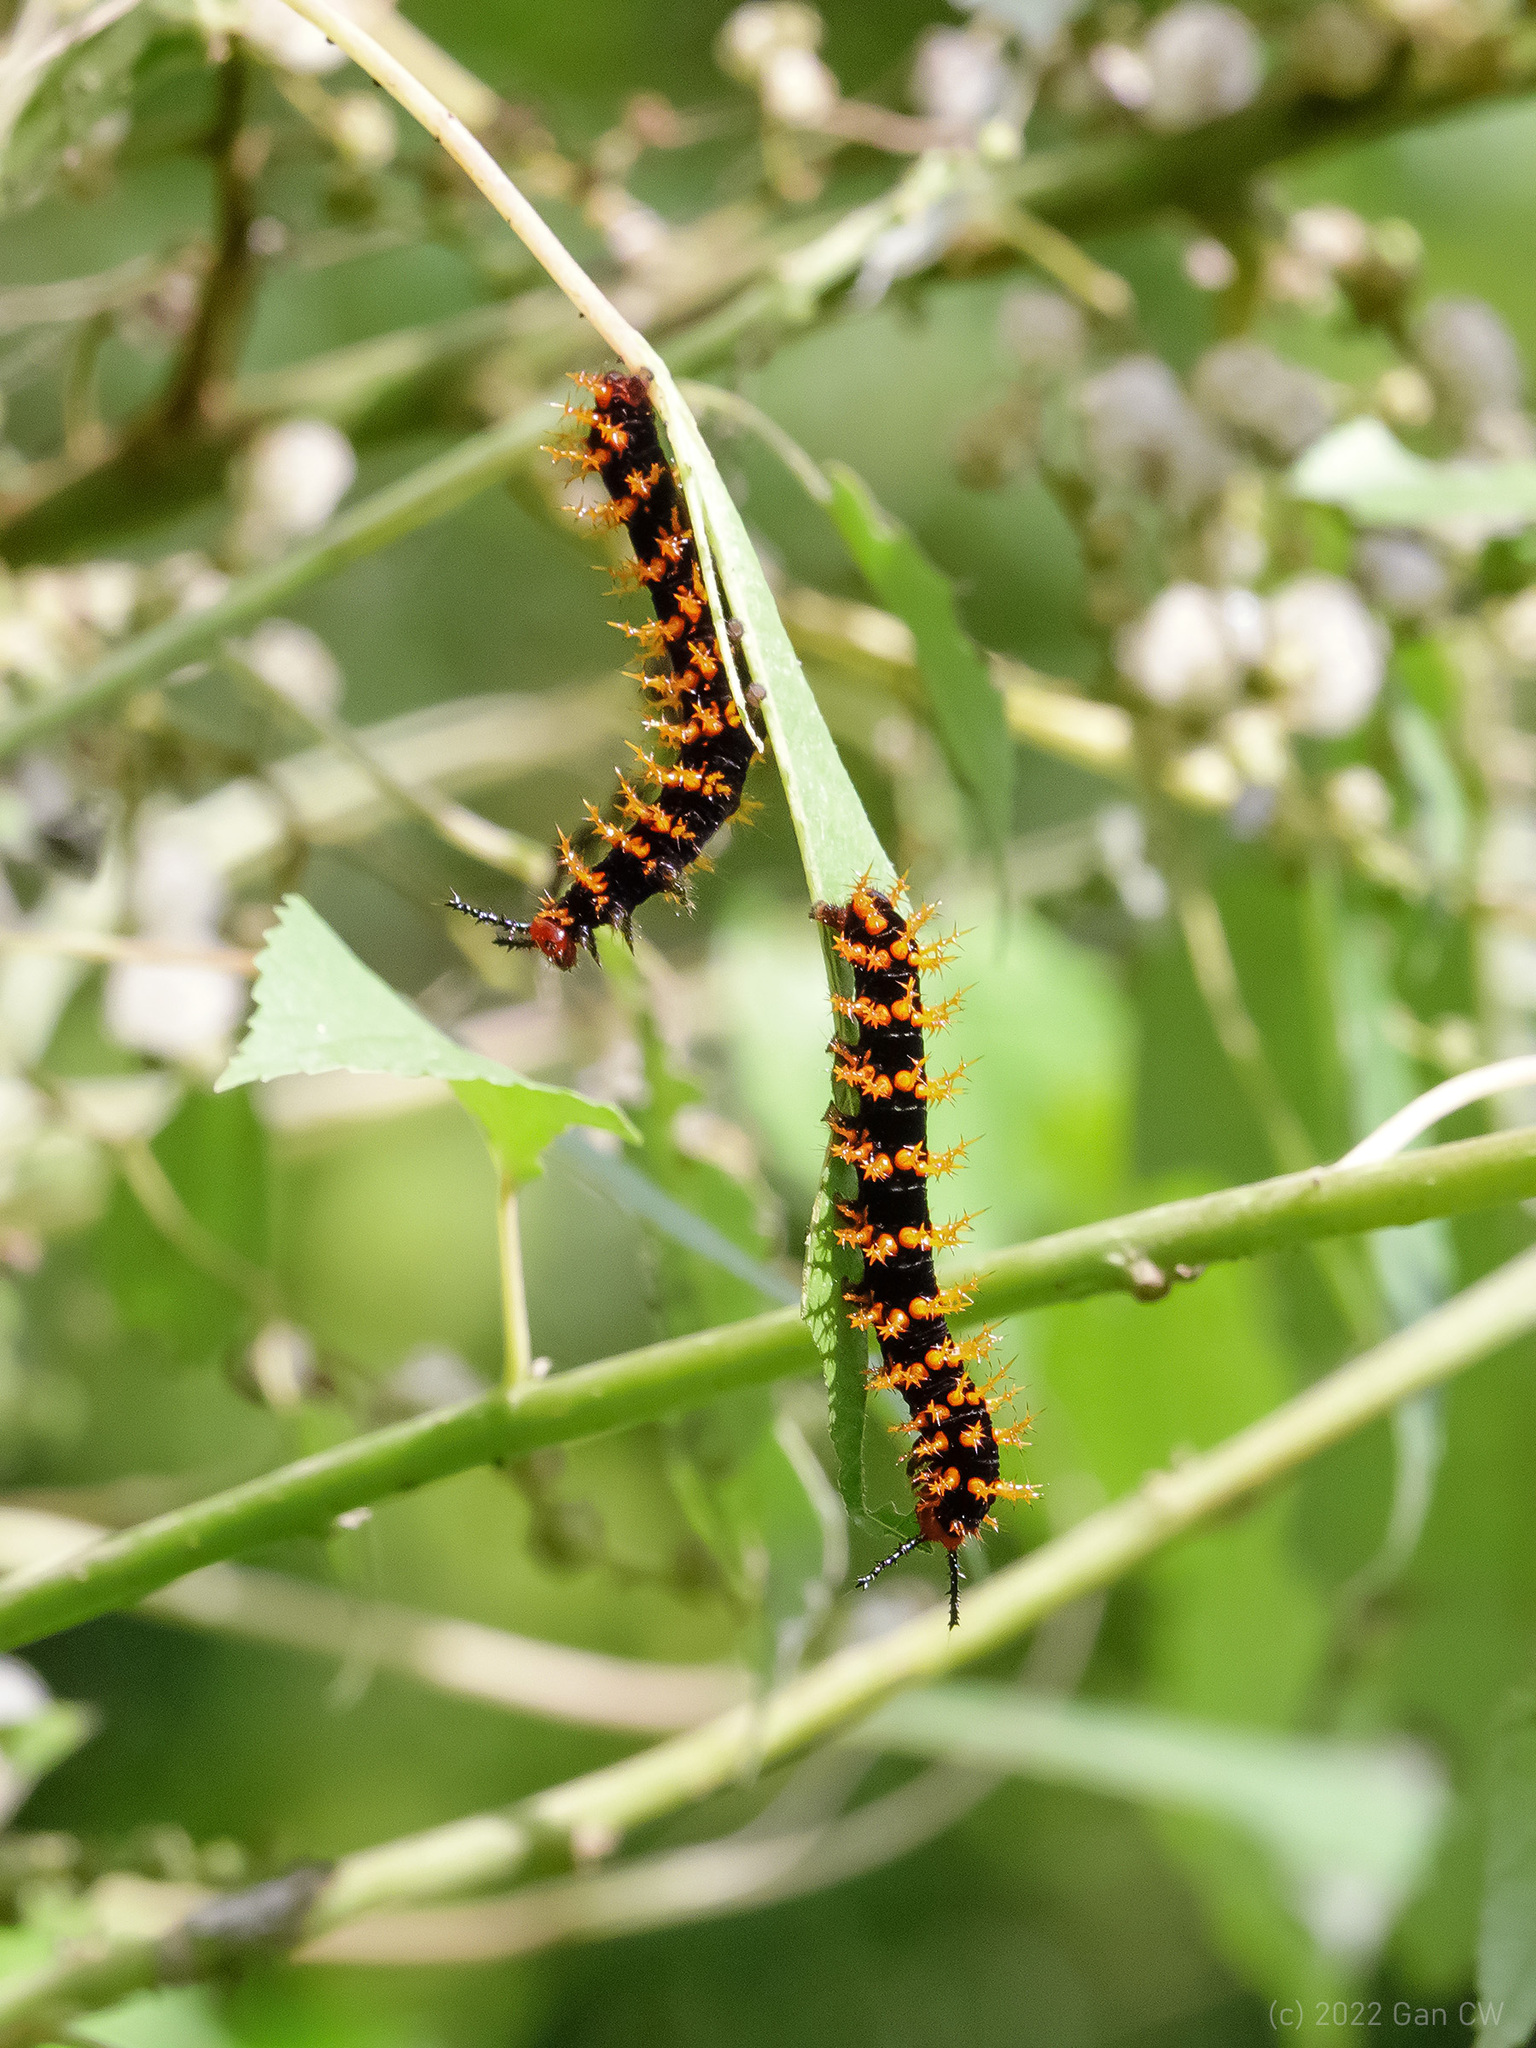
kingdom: Animalia
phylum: Arthropoda
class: Insecta
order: Lepidoptera
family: Nymphalidae
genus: Hypolimnas
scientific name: Hypolimnas anomala
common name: Malayan eggfly
